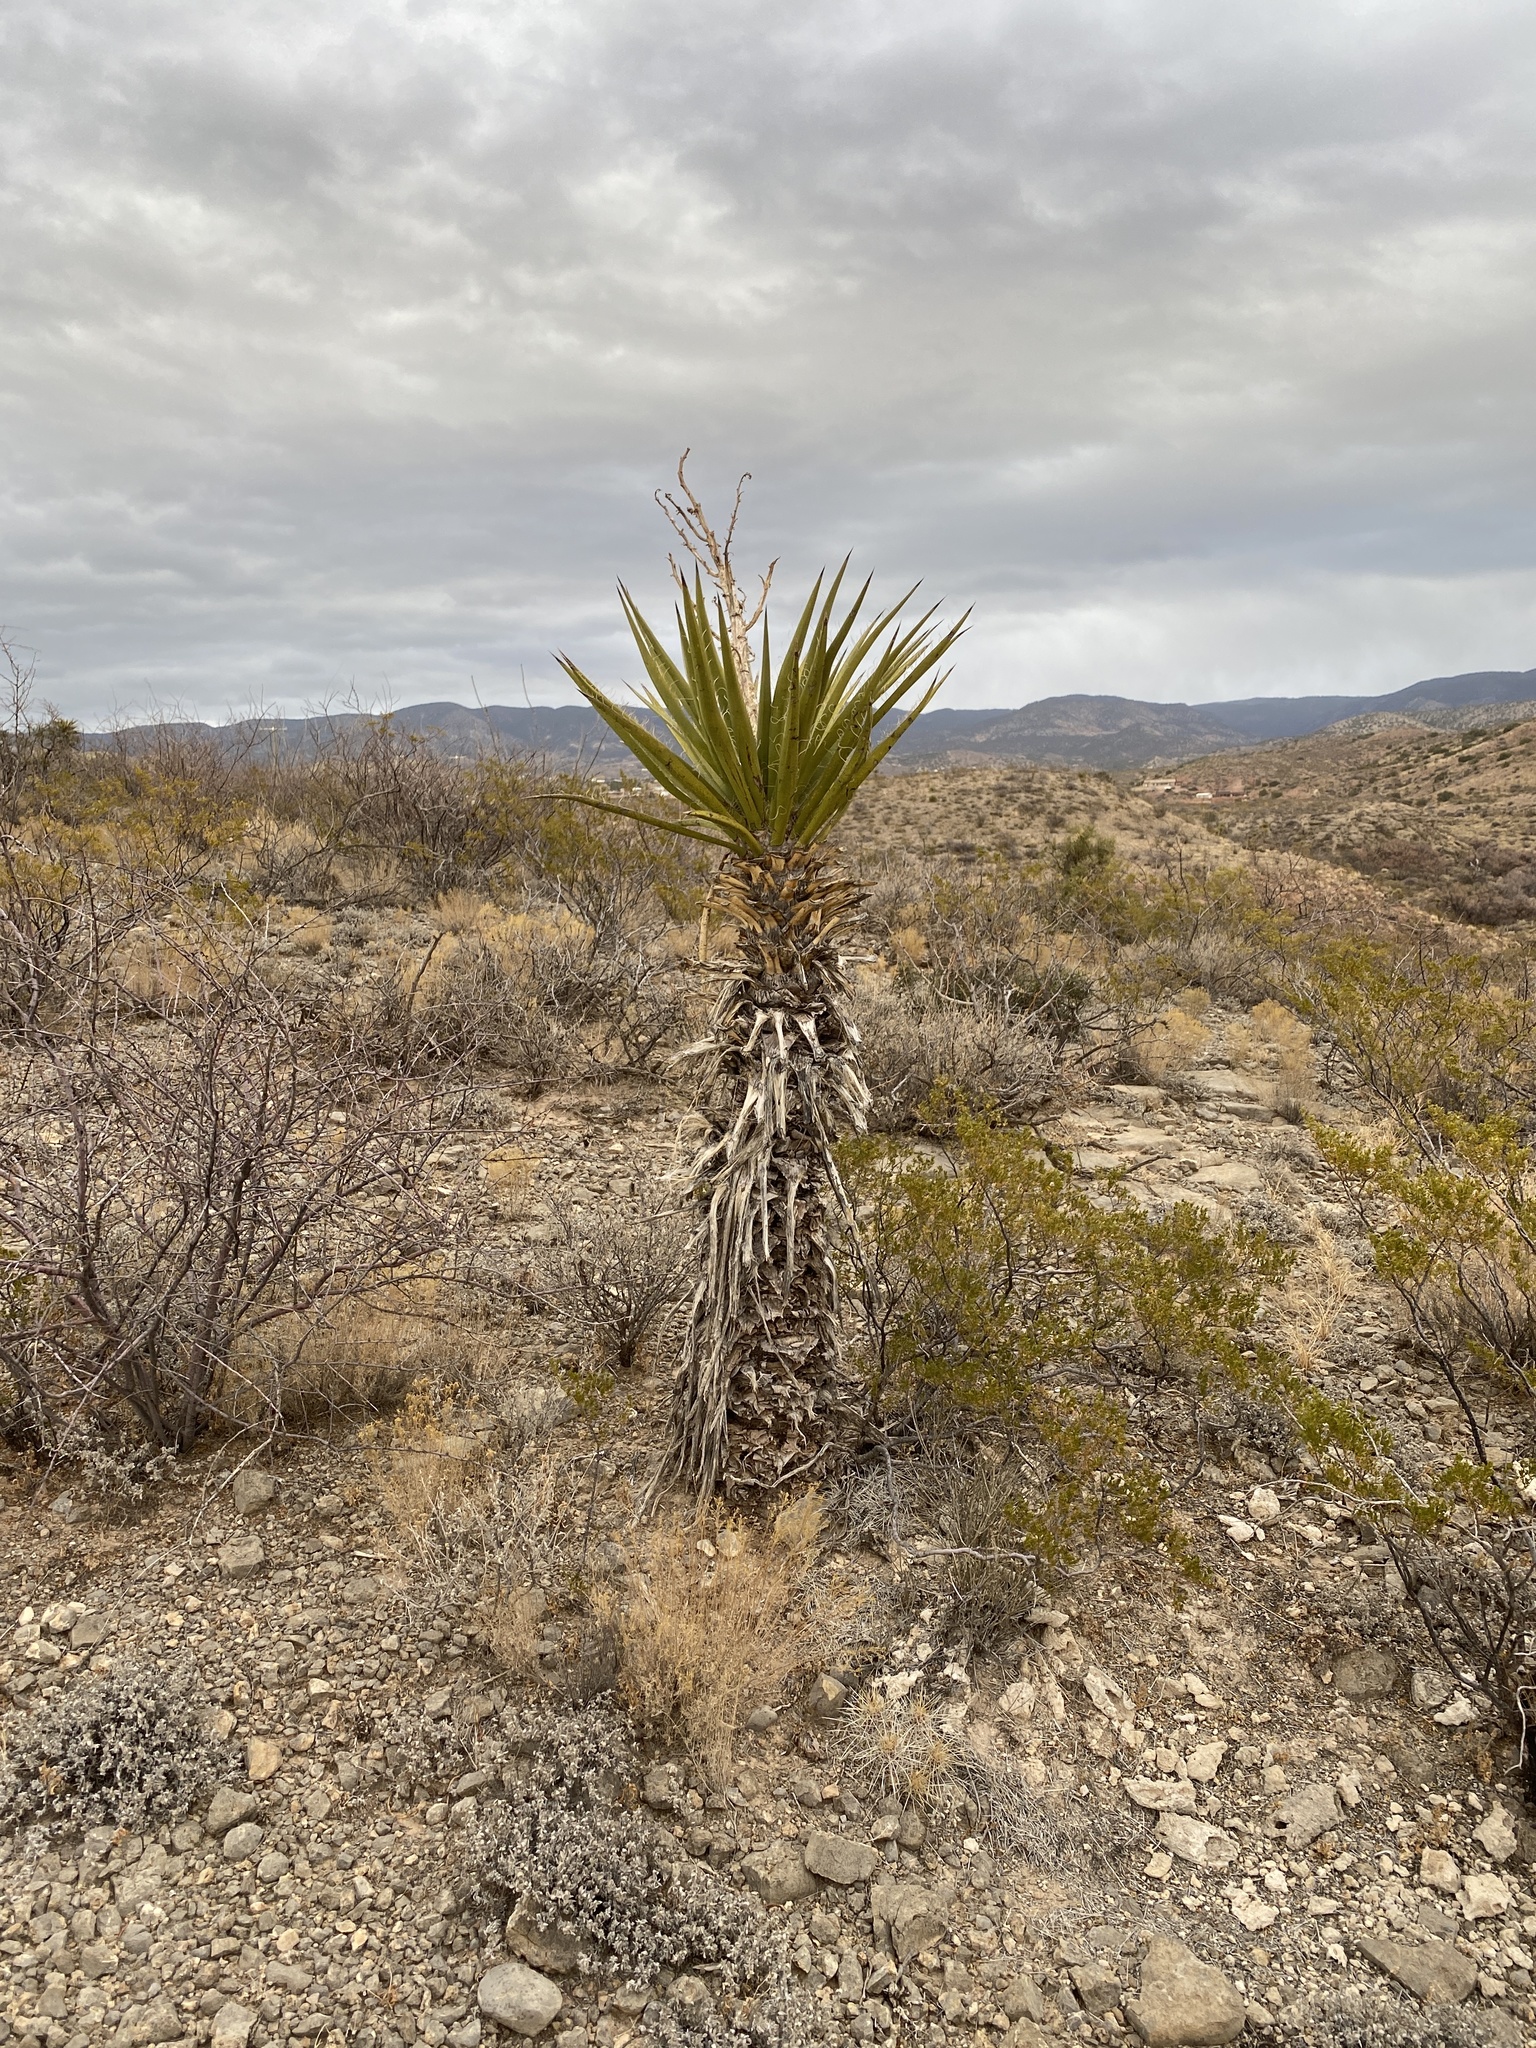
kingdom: Plantae
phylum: Tracheophyta
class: Liliopsida
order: Asparagales
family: Asparagaceae
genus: Yucca
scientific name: Yucca treculiana
